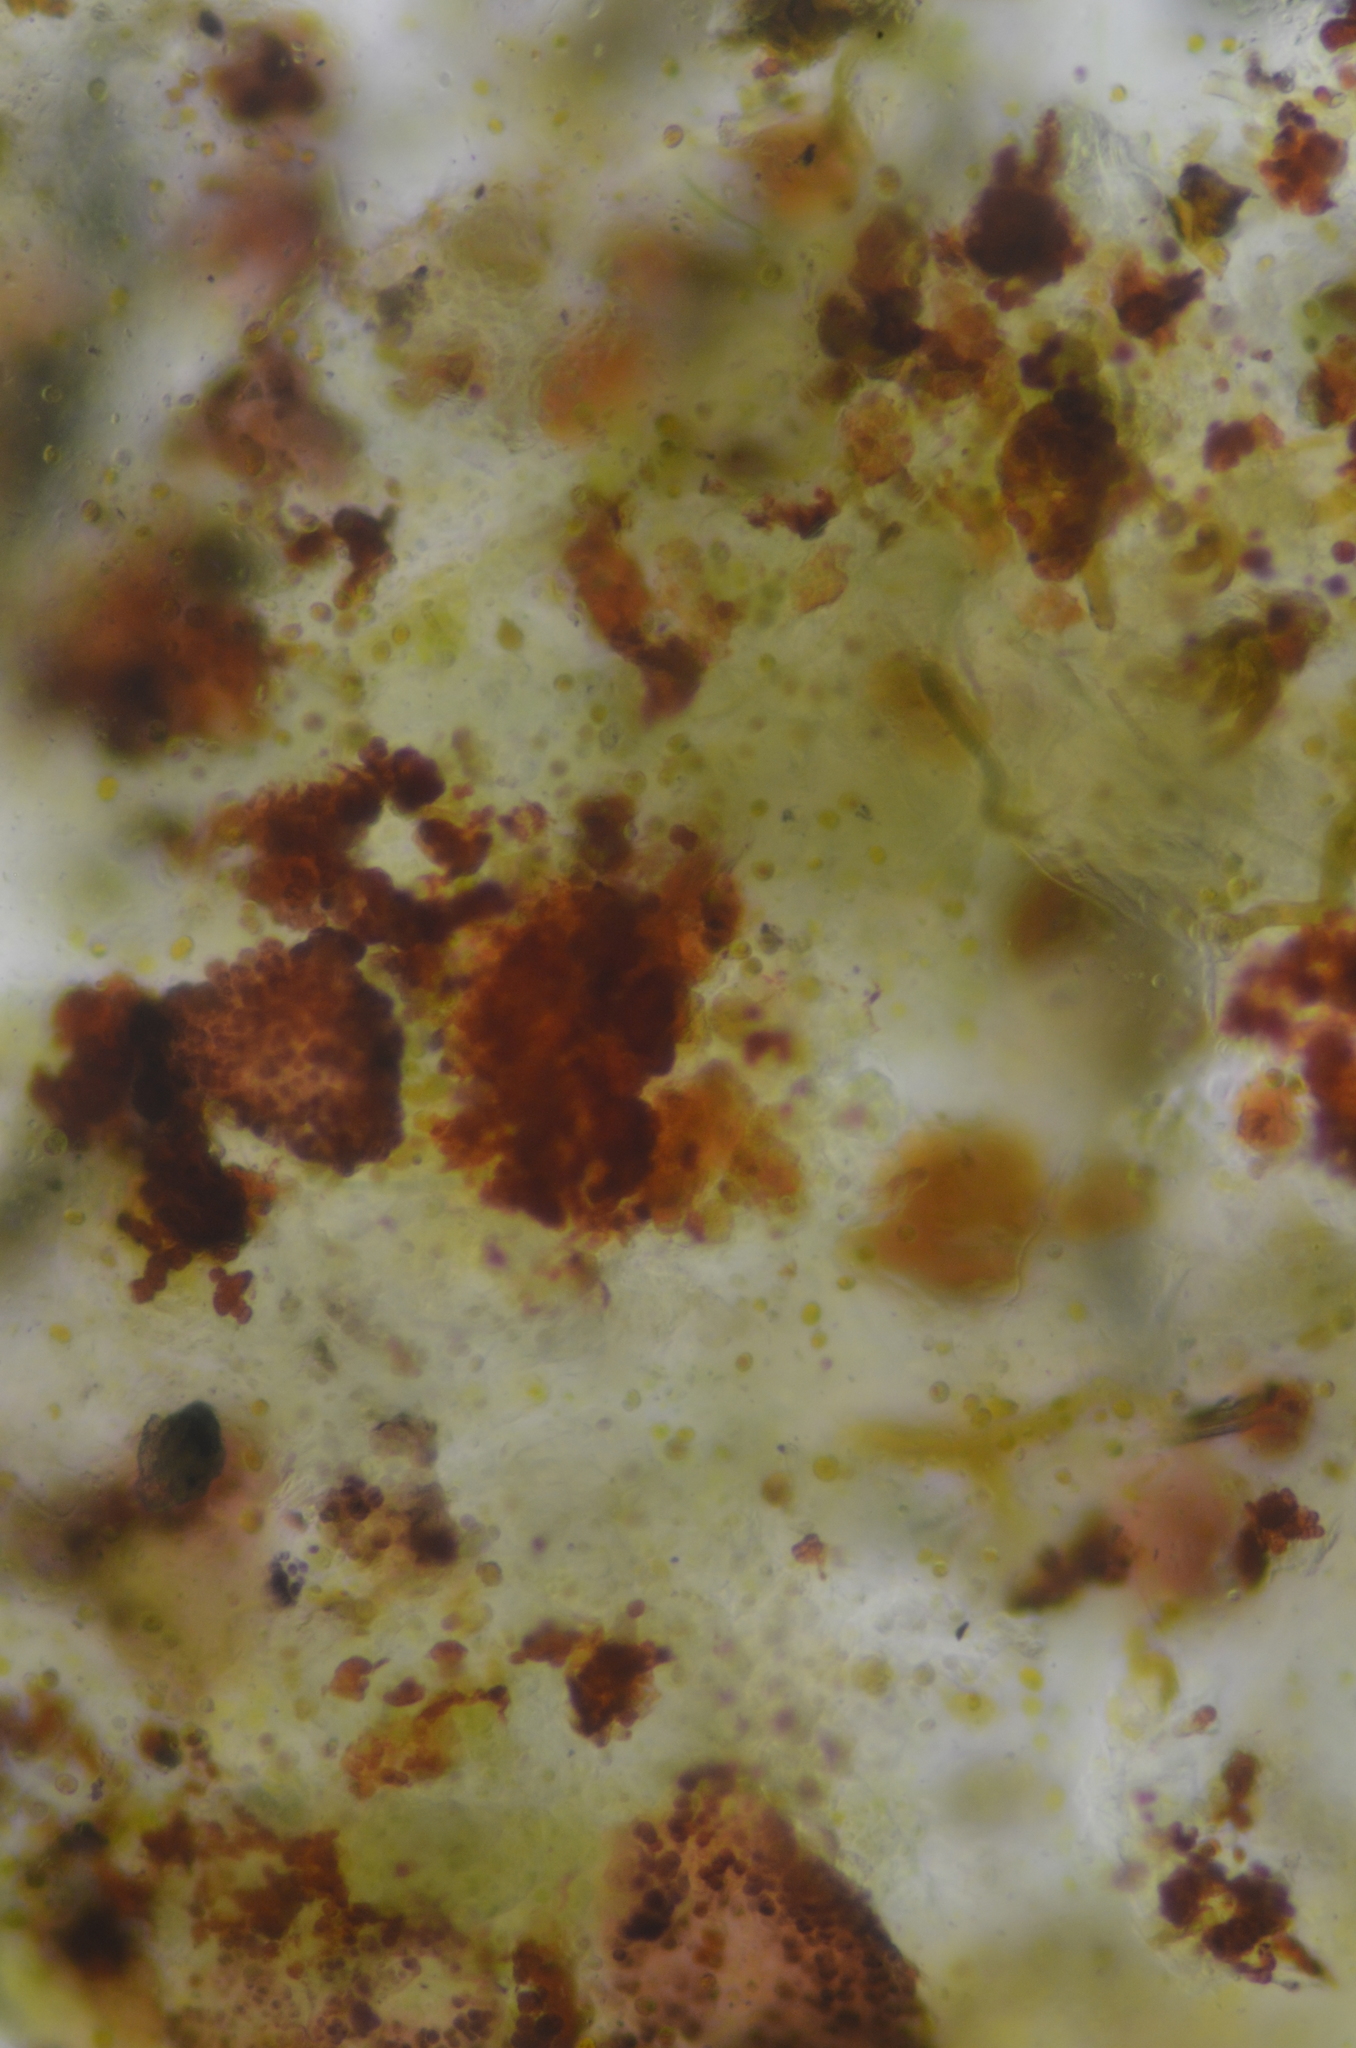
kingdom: Bacteria
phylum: Cyanobacteria
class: Cyanobacteriia
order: Cyanobacteriales
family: Chroococcidiopsidaceae
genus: Gloeocapsopsis
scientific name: Gloeocapsopsis magma
